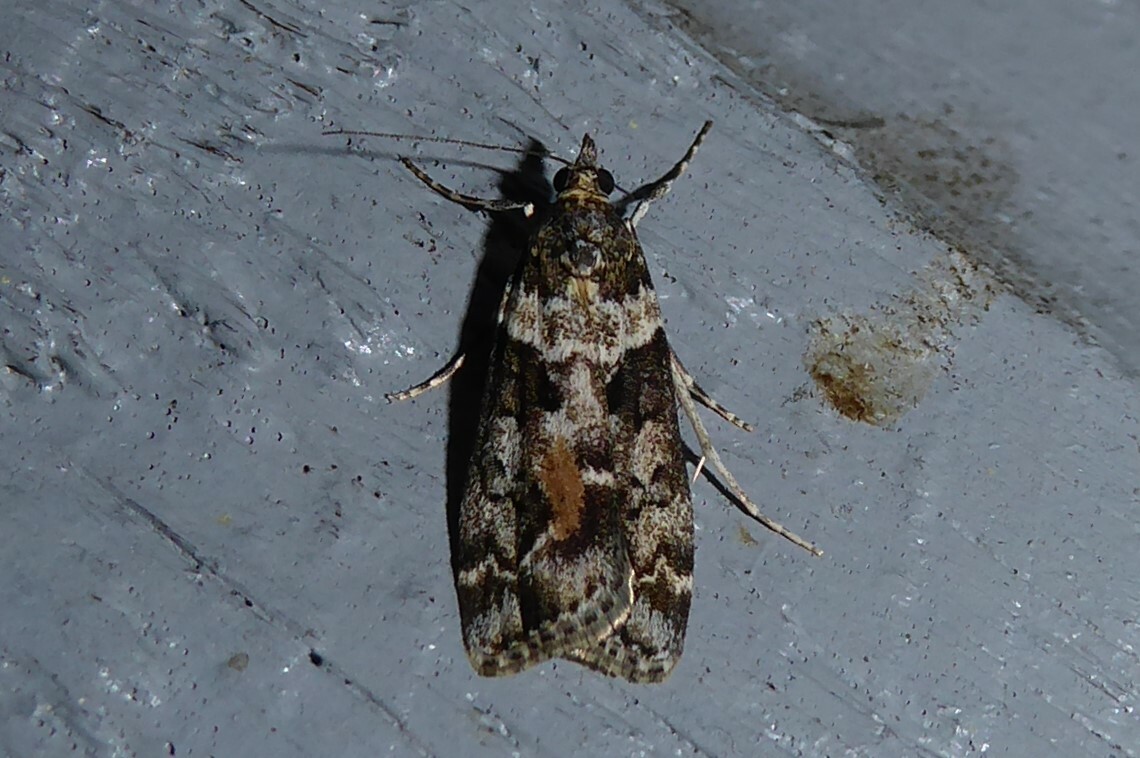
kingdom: Animalia
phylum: Arthropoda
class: Insecta
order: Lepidoptera
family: Crambidae
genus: Eudonia
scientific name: Eudonia submarginalis
